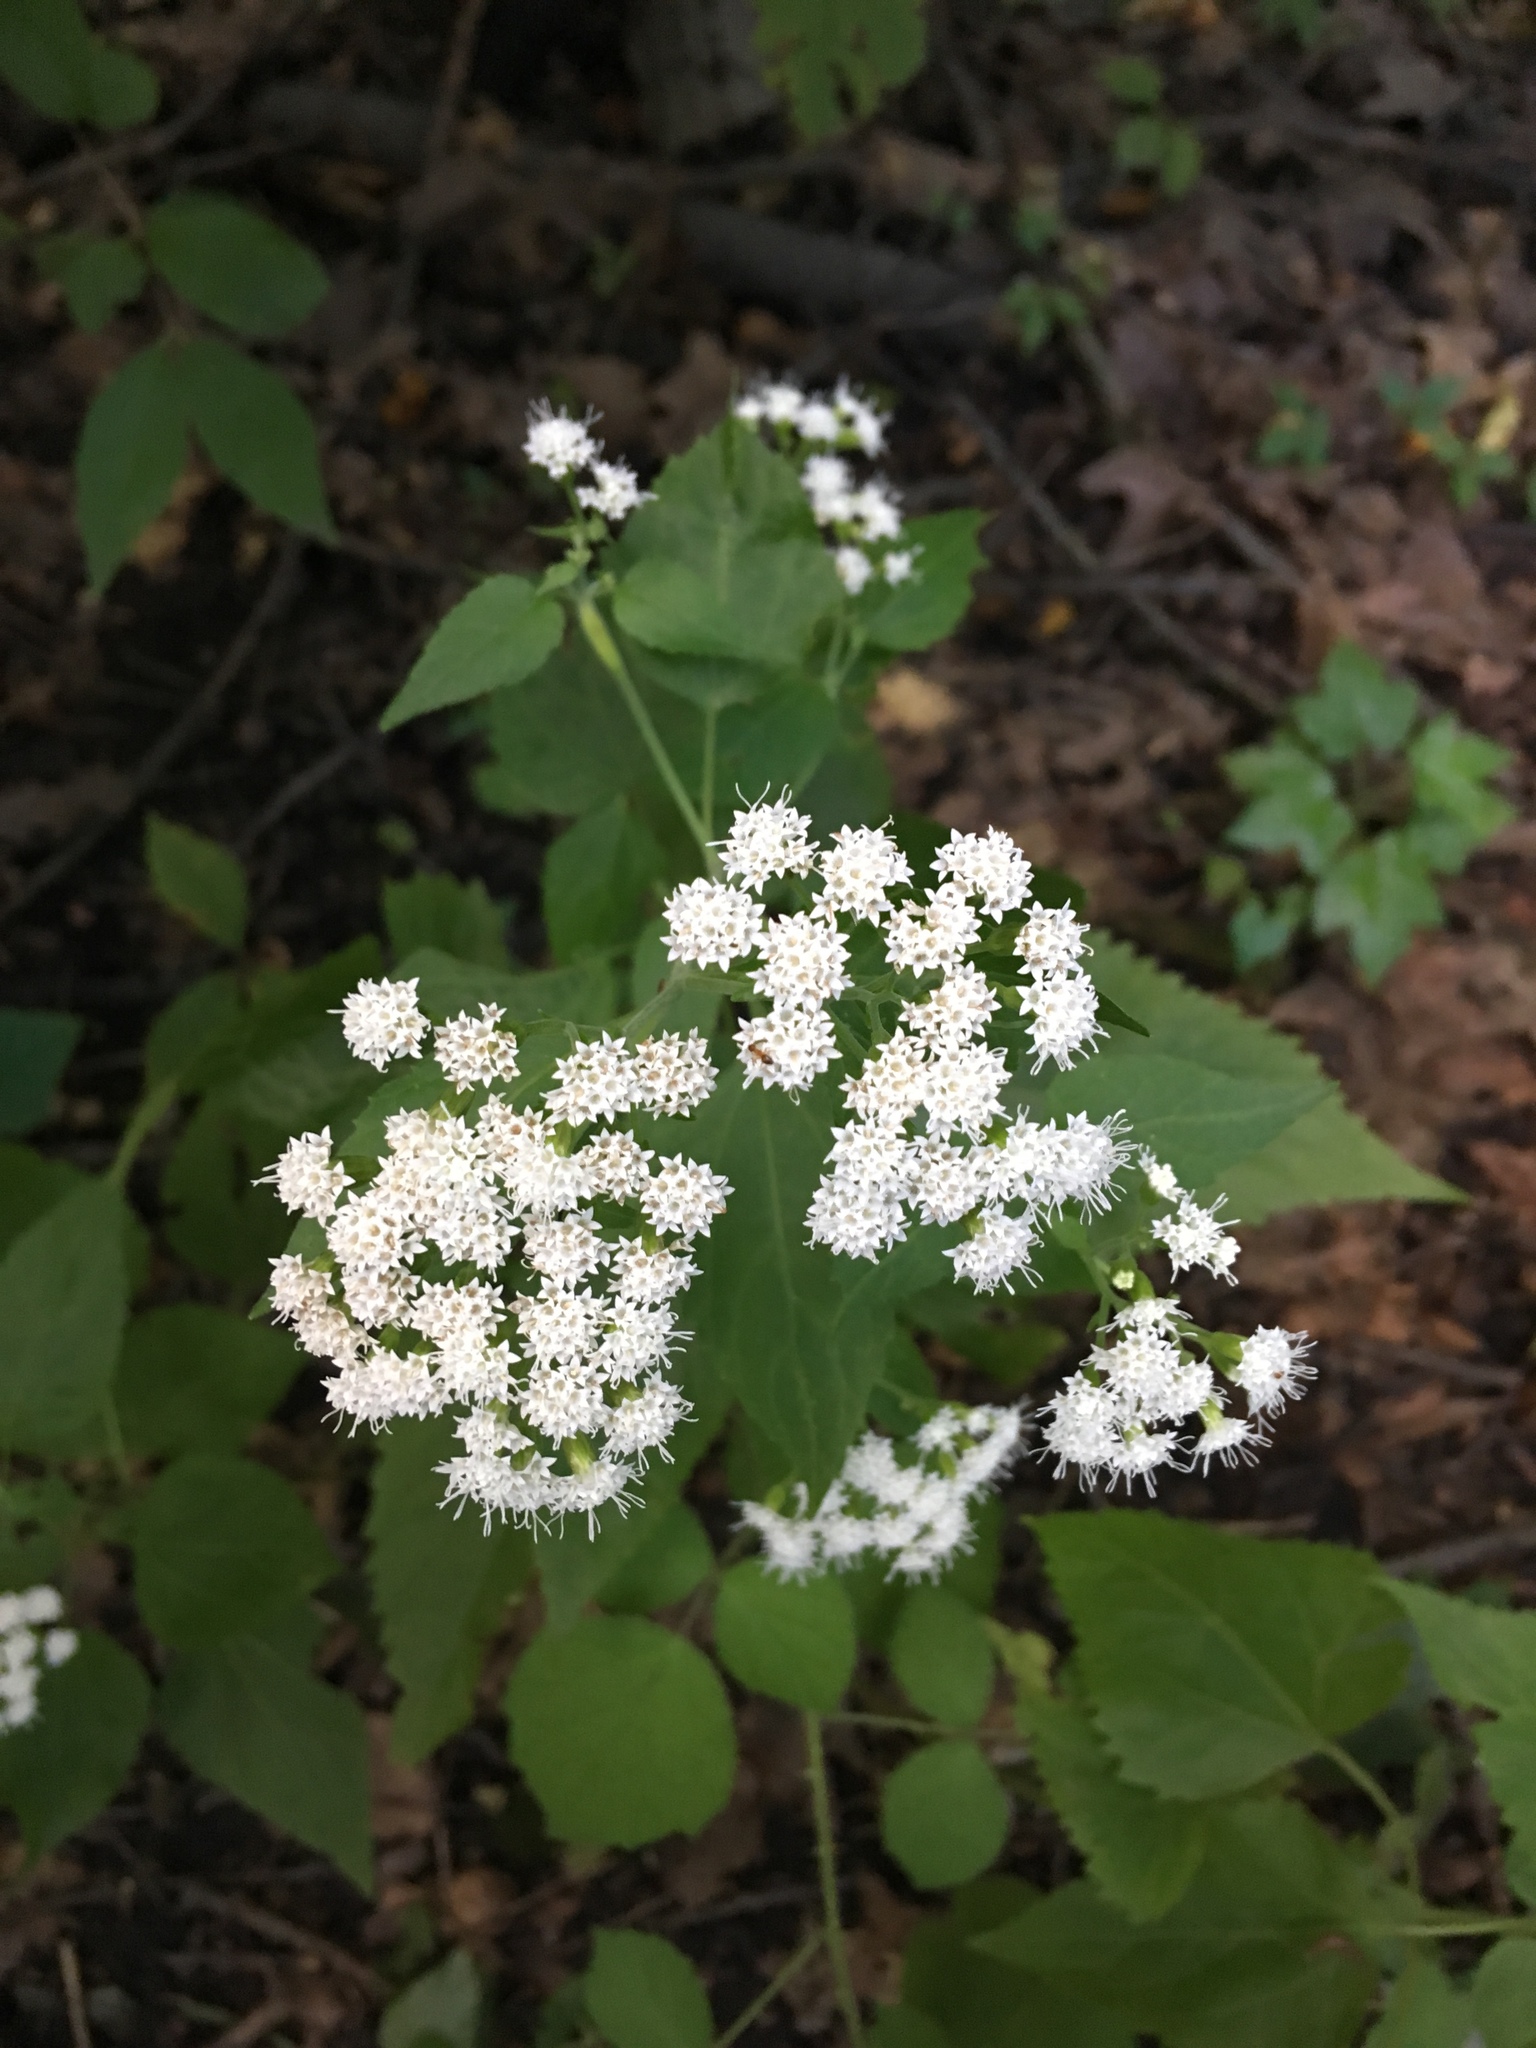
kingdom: Plantae
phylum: Tracheophyta
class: Magnoliopsida
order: Asterales
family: Asteraceae
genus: Ageratina
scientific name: Ageratina altissima
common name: White snakeroot
